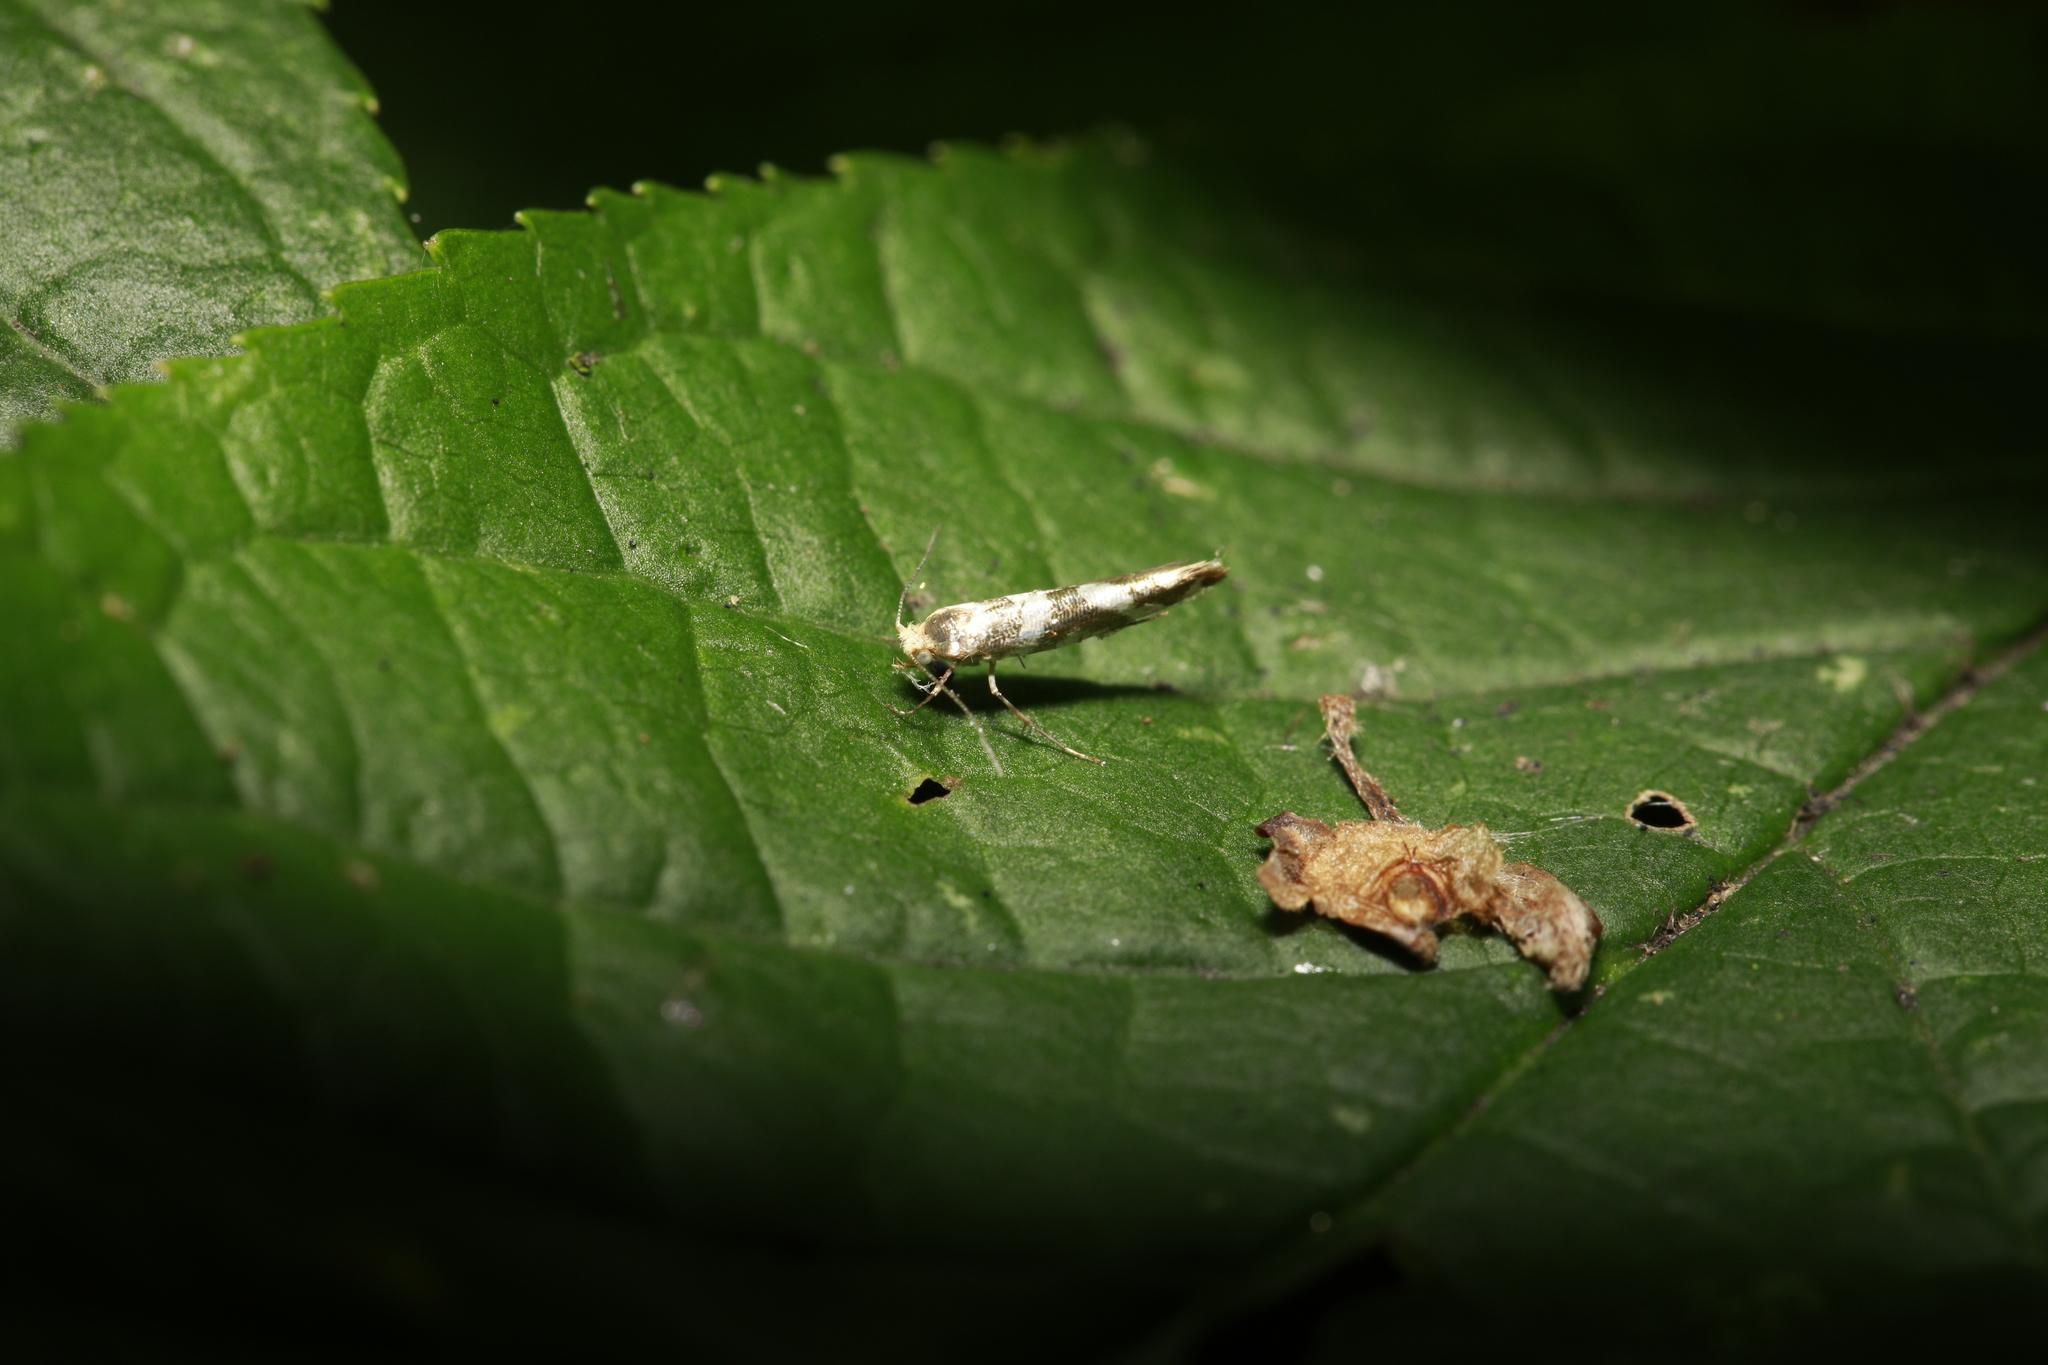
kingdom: Animalia
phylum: Arthropoda
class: Insecta
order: Lepidoptera
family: Argyresthiidae
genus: Argyresthia
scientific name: Argyresthia goedartella
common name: Golden argent
